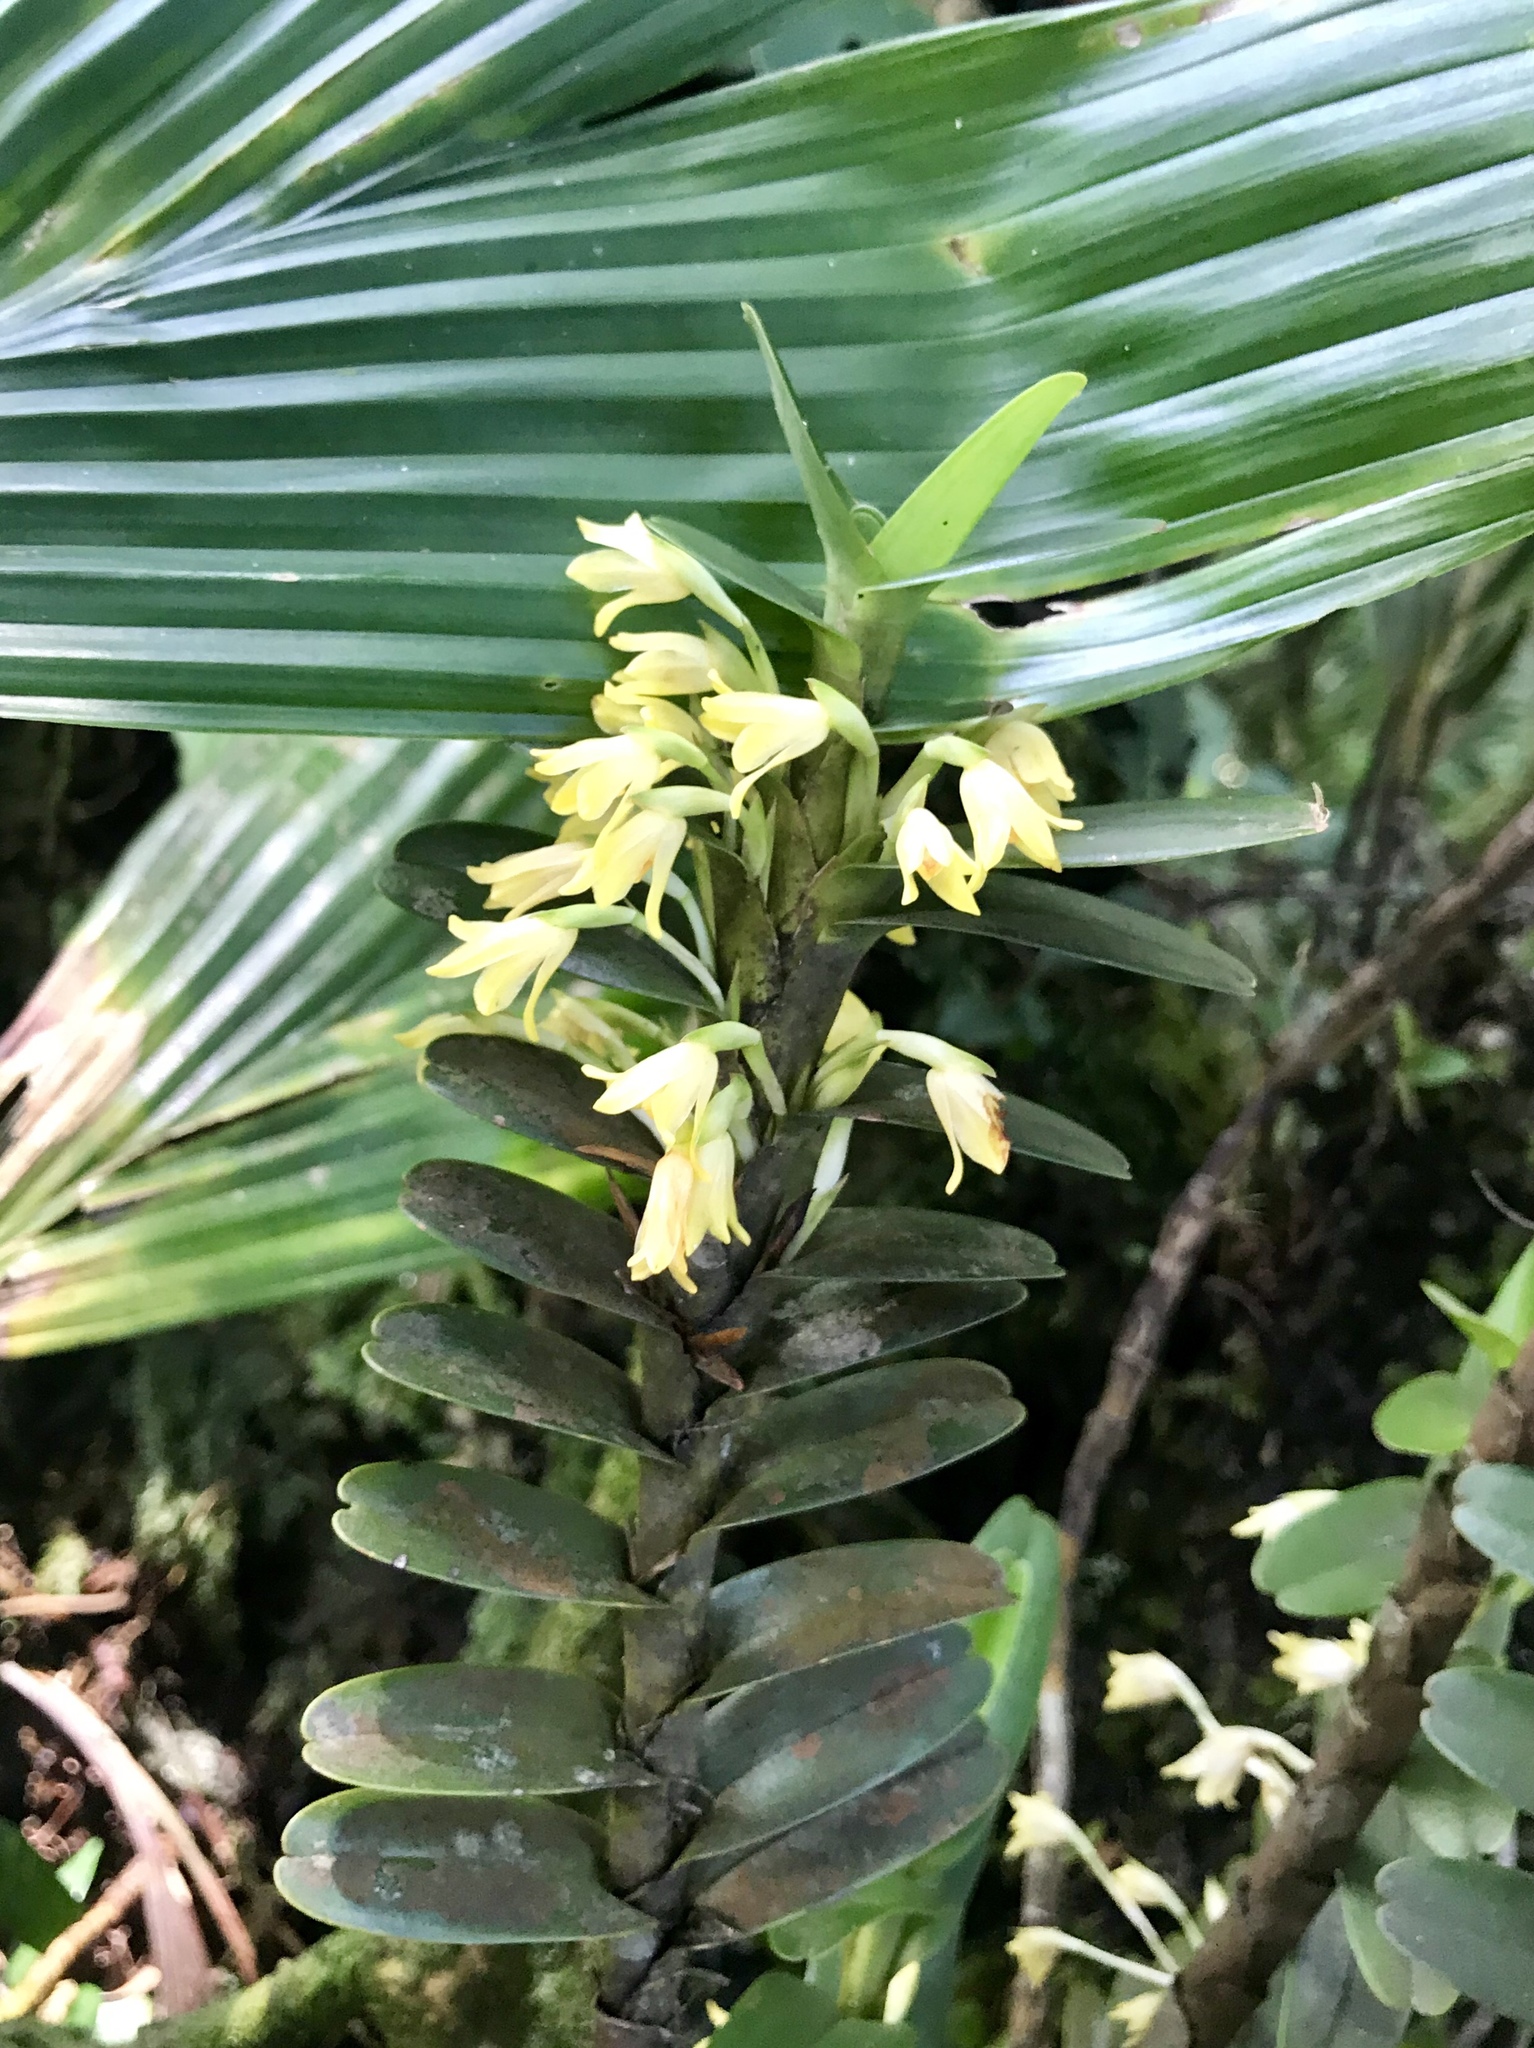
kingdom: Plantae
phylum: Tracheophyta
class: Liliopsida
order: Asparagales
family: Orchidaceae
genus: Maxillaria
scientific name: Maxillaria fragrans
